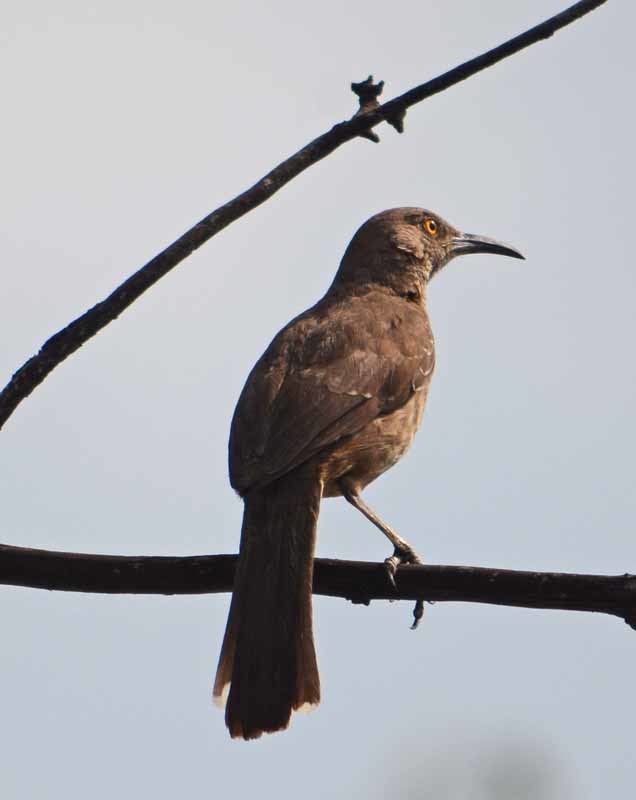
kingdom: Animalia
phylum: Chordata
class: Aves
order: Passeriformes
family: Mimidae
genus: Toxostoma
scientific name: Toxostoma curvirostre
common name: Curve-billed thrasher
